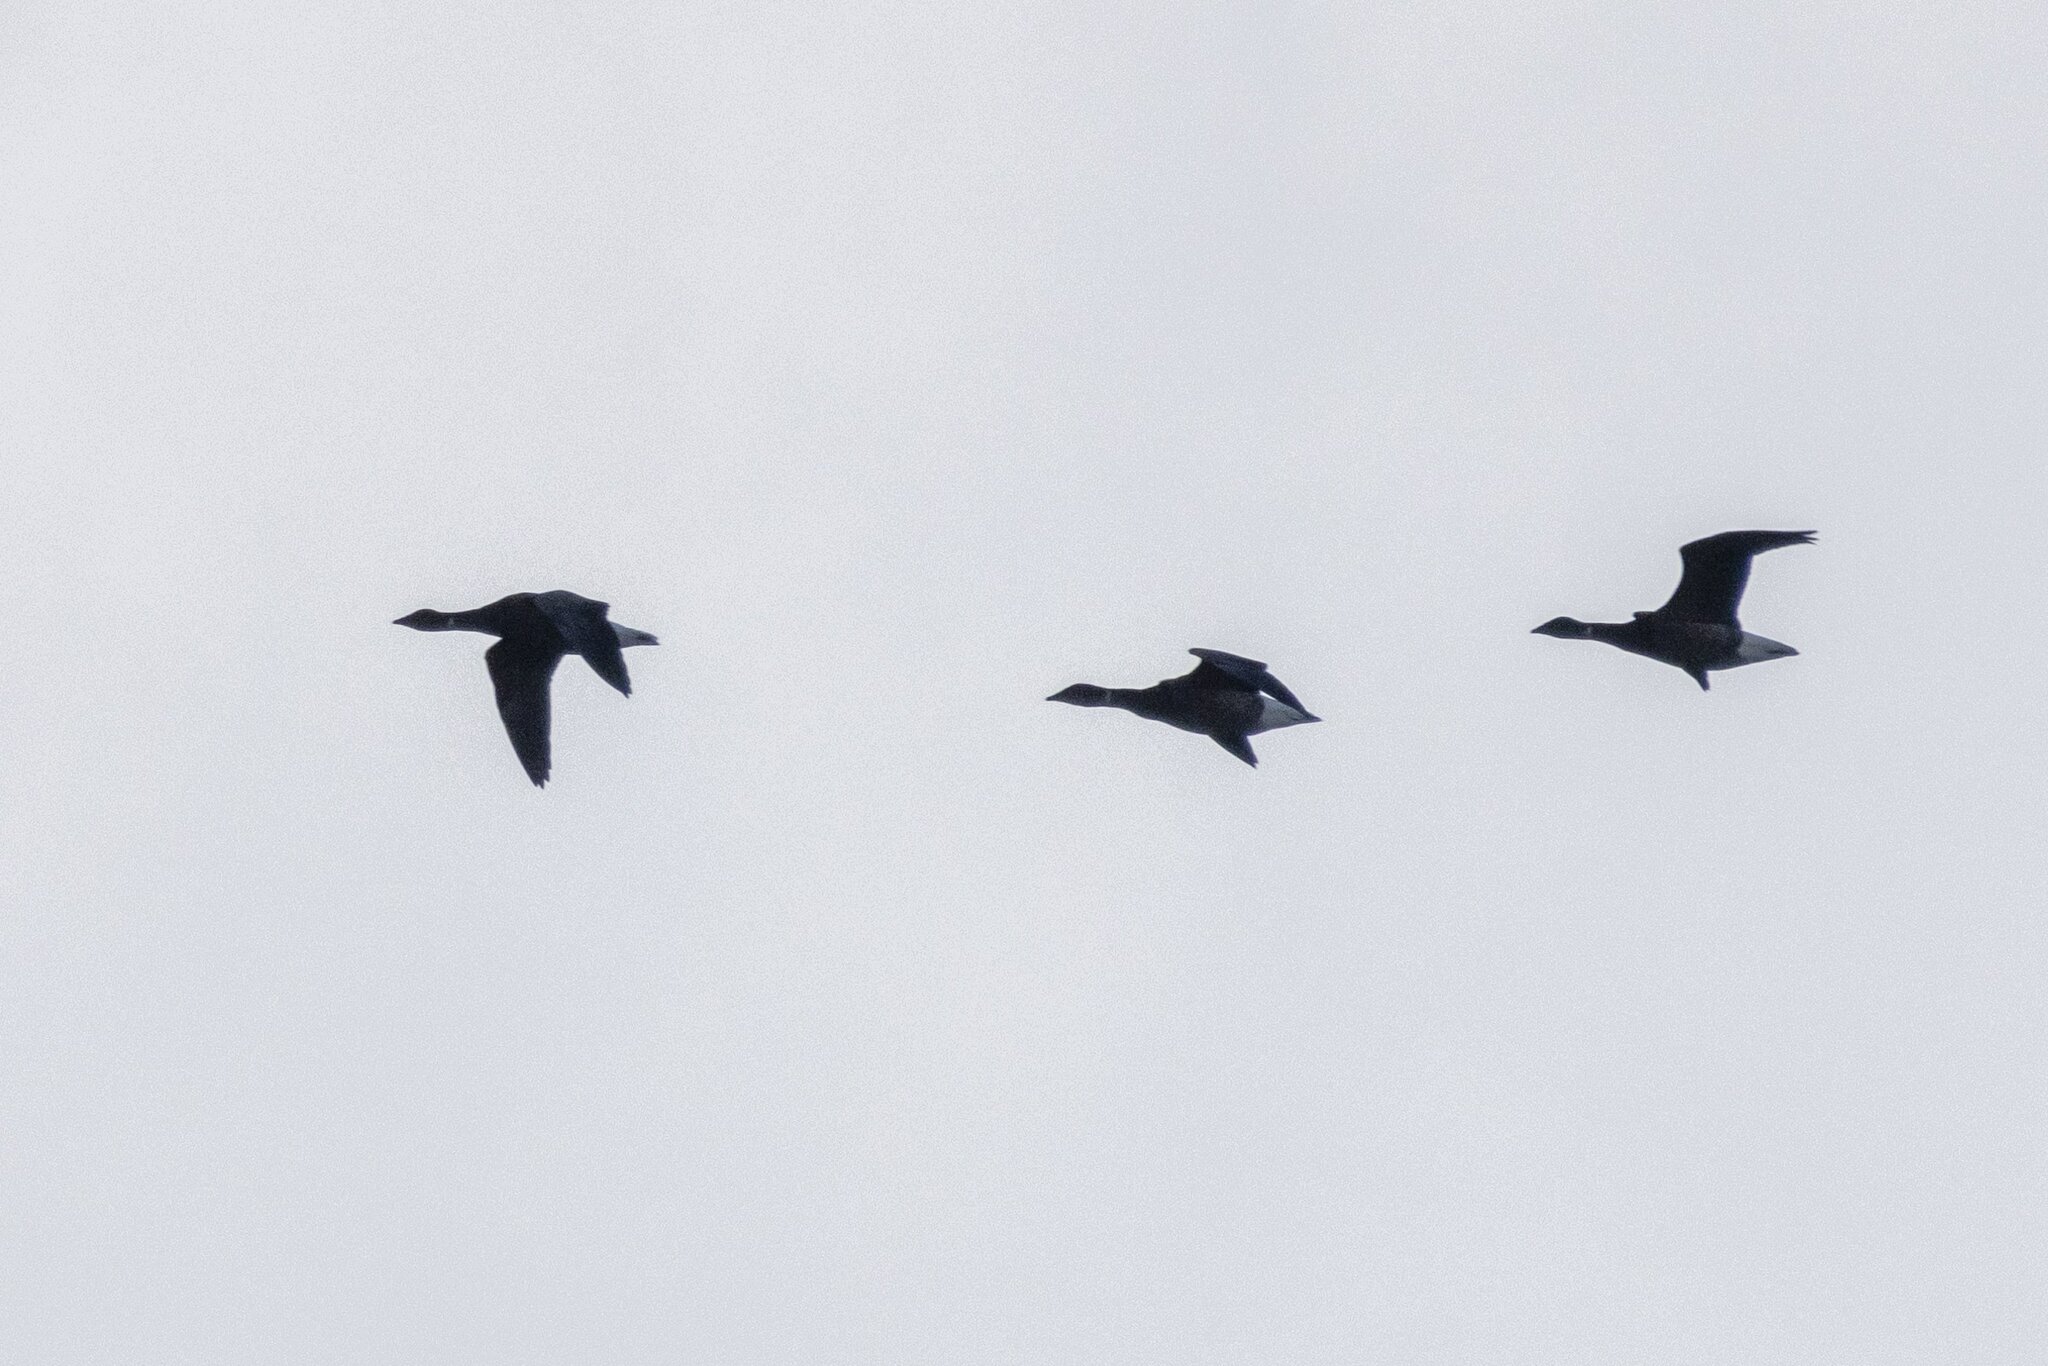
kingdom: Animalia
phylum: Chordata
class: Aves
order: Anseriformes
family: Anatidae
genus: Branta
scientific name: Branta bernicla
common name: Brant goose
